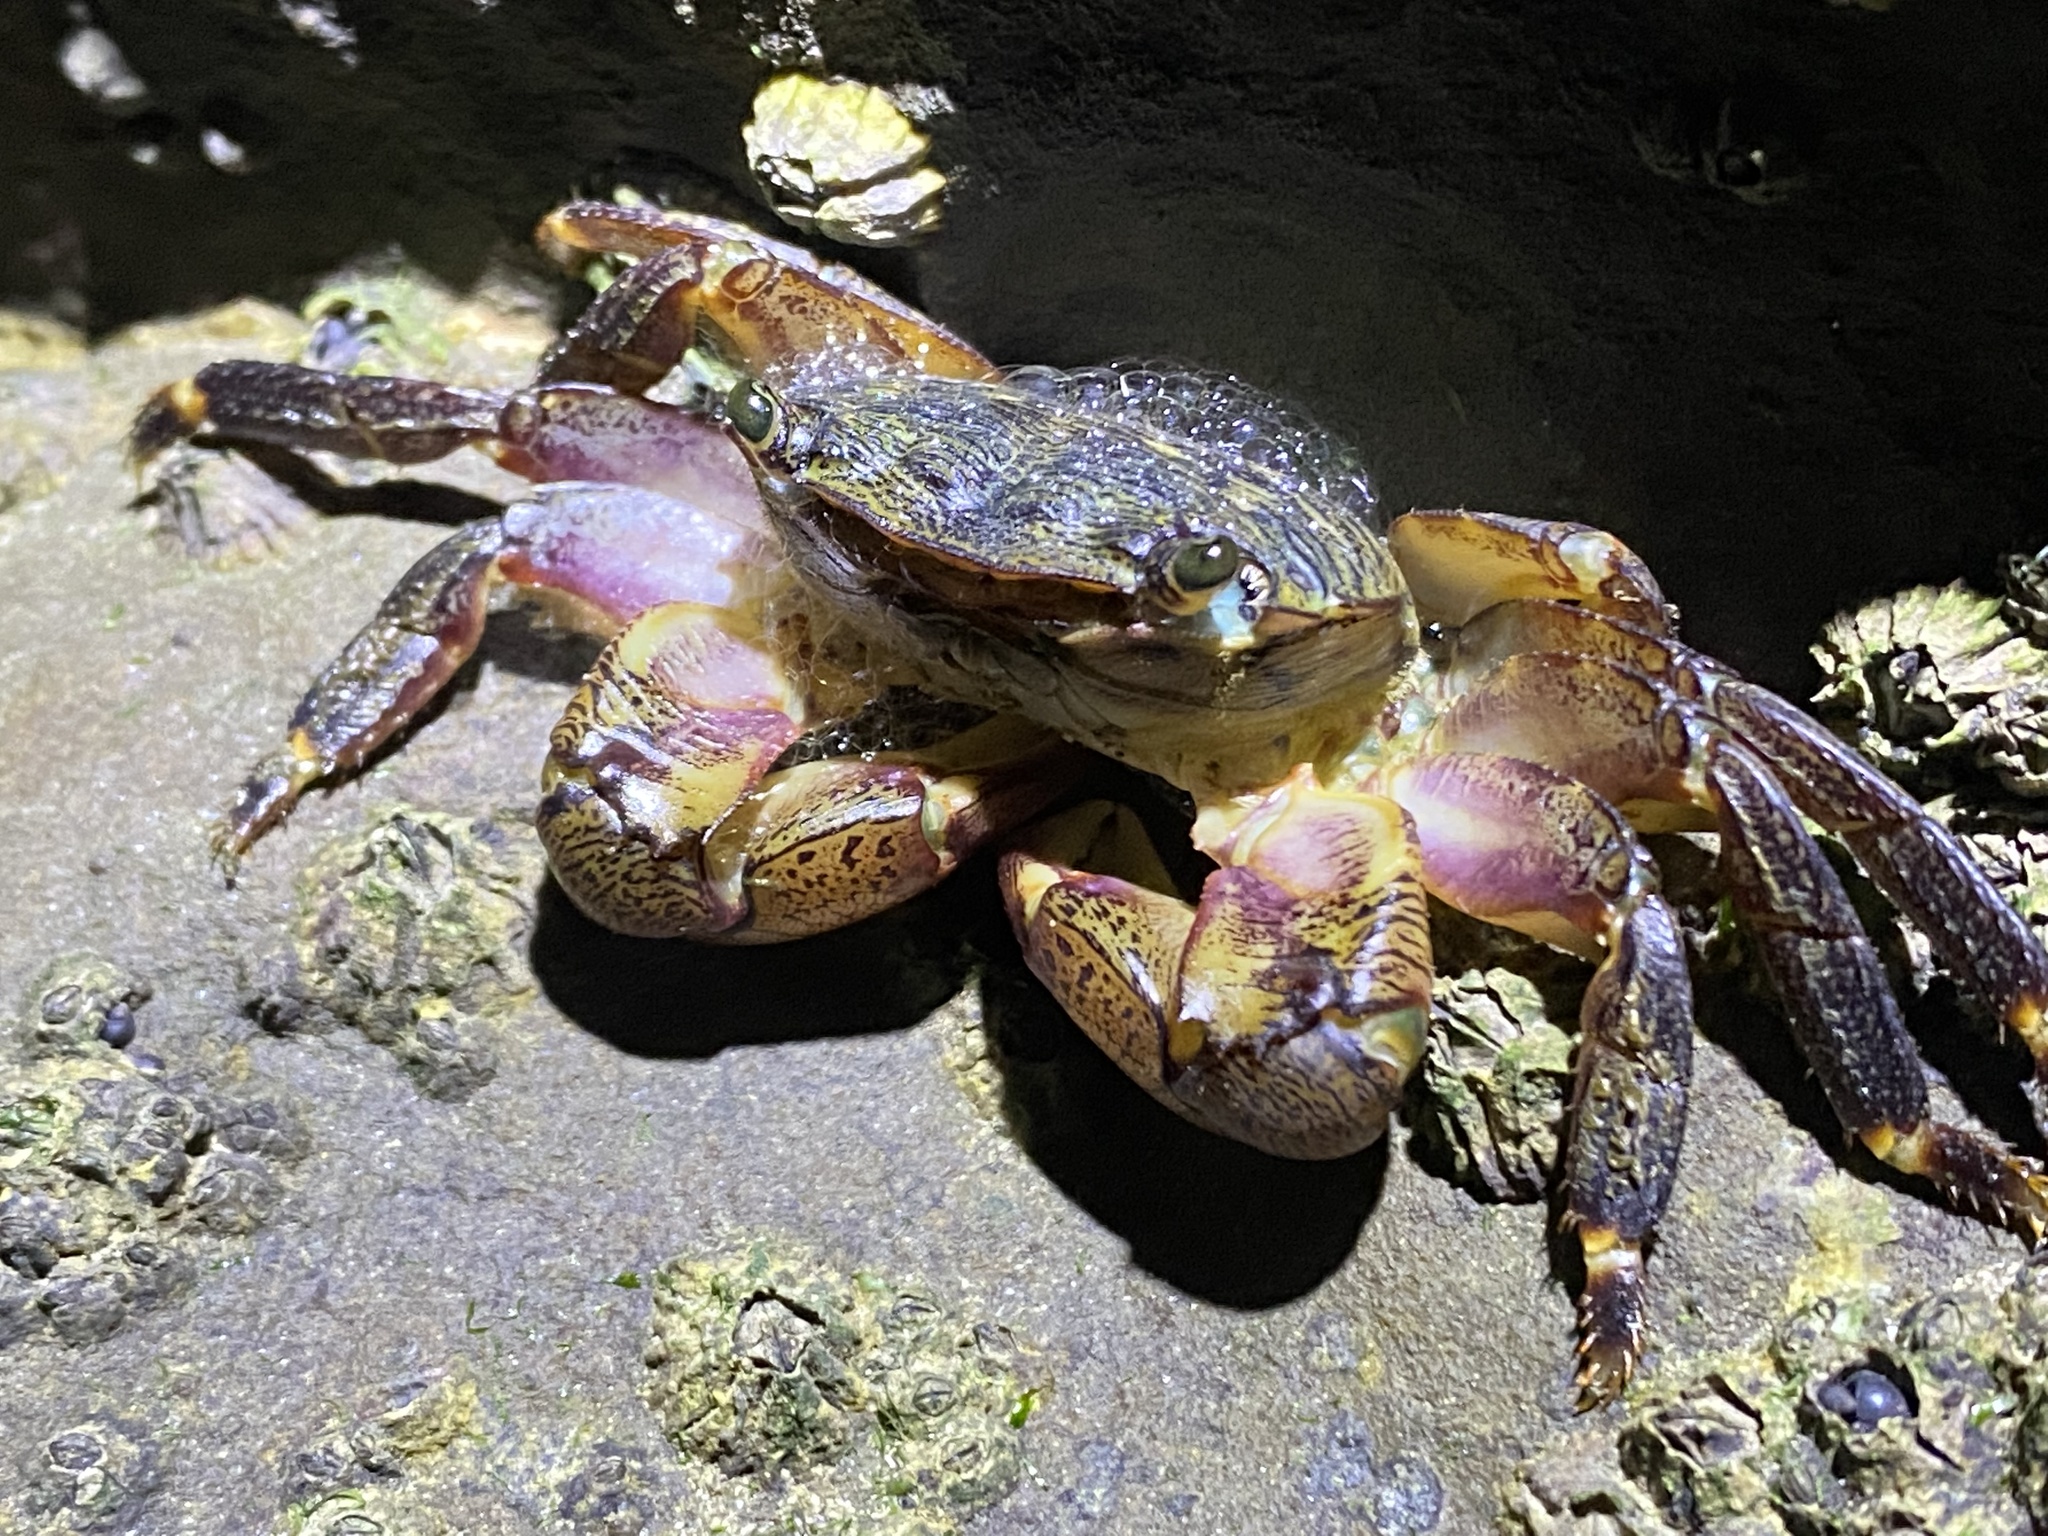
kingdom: Animalia
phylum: Arthropoda
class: Malacostraca
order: Decapoda
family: Grapsidae
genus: Pachygrapsus
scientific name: Pachygrapsus crassipes
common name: Striped shore crab
